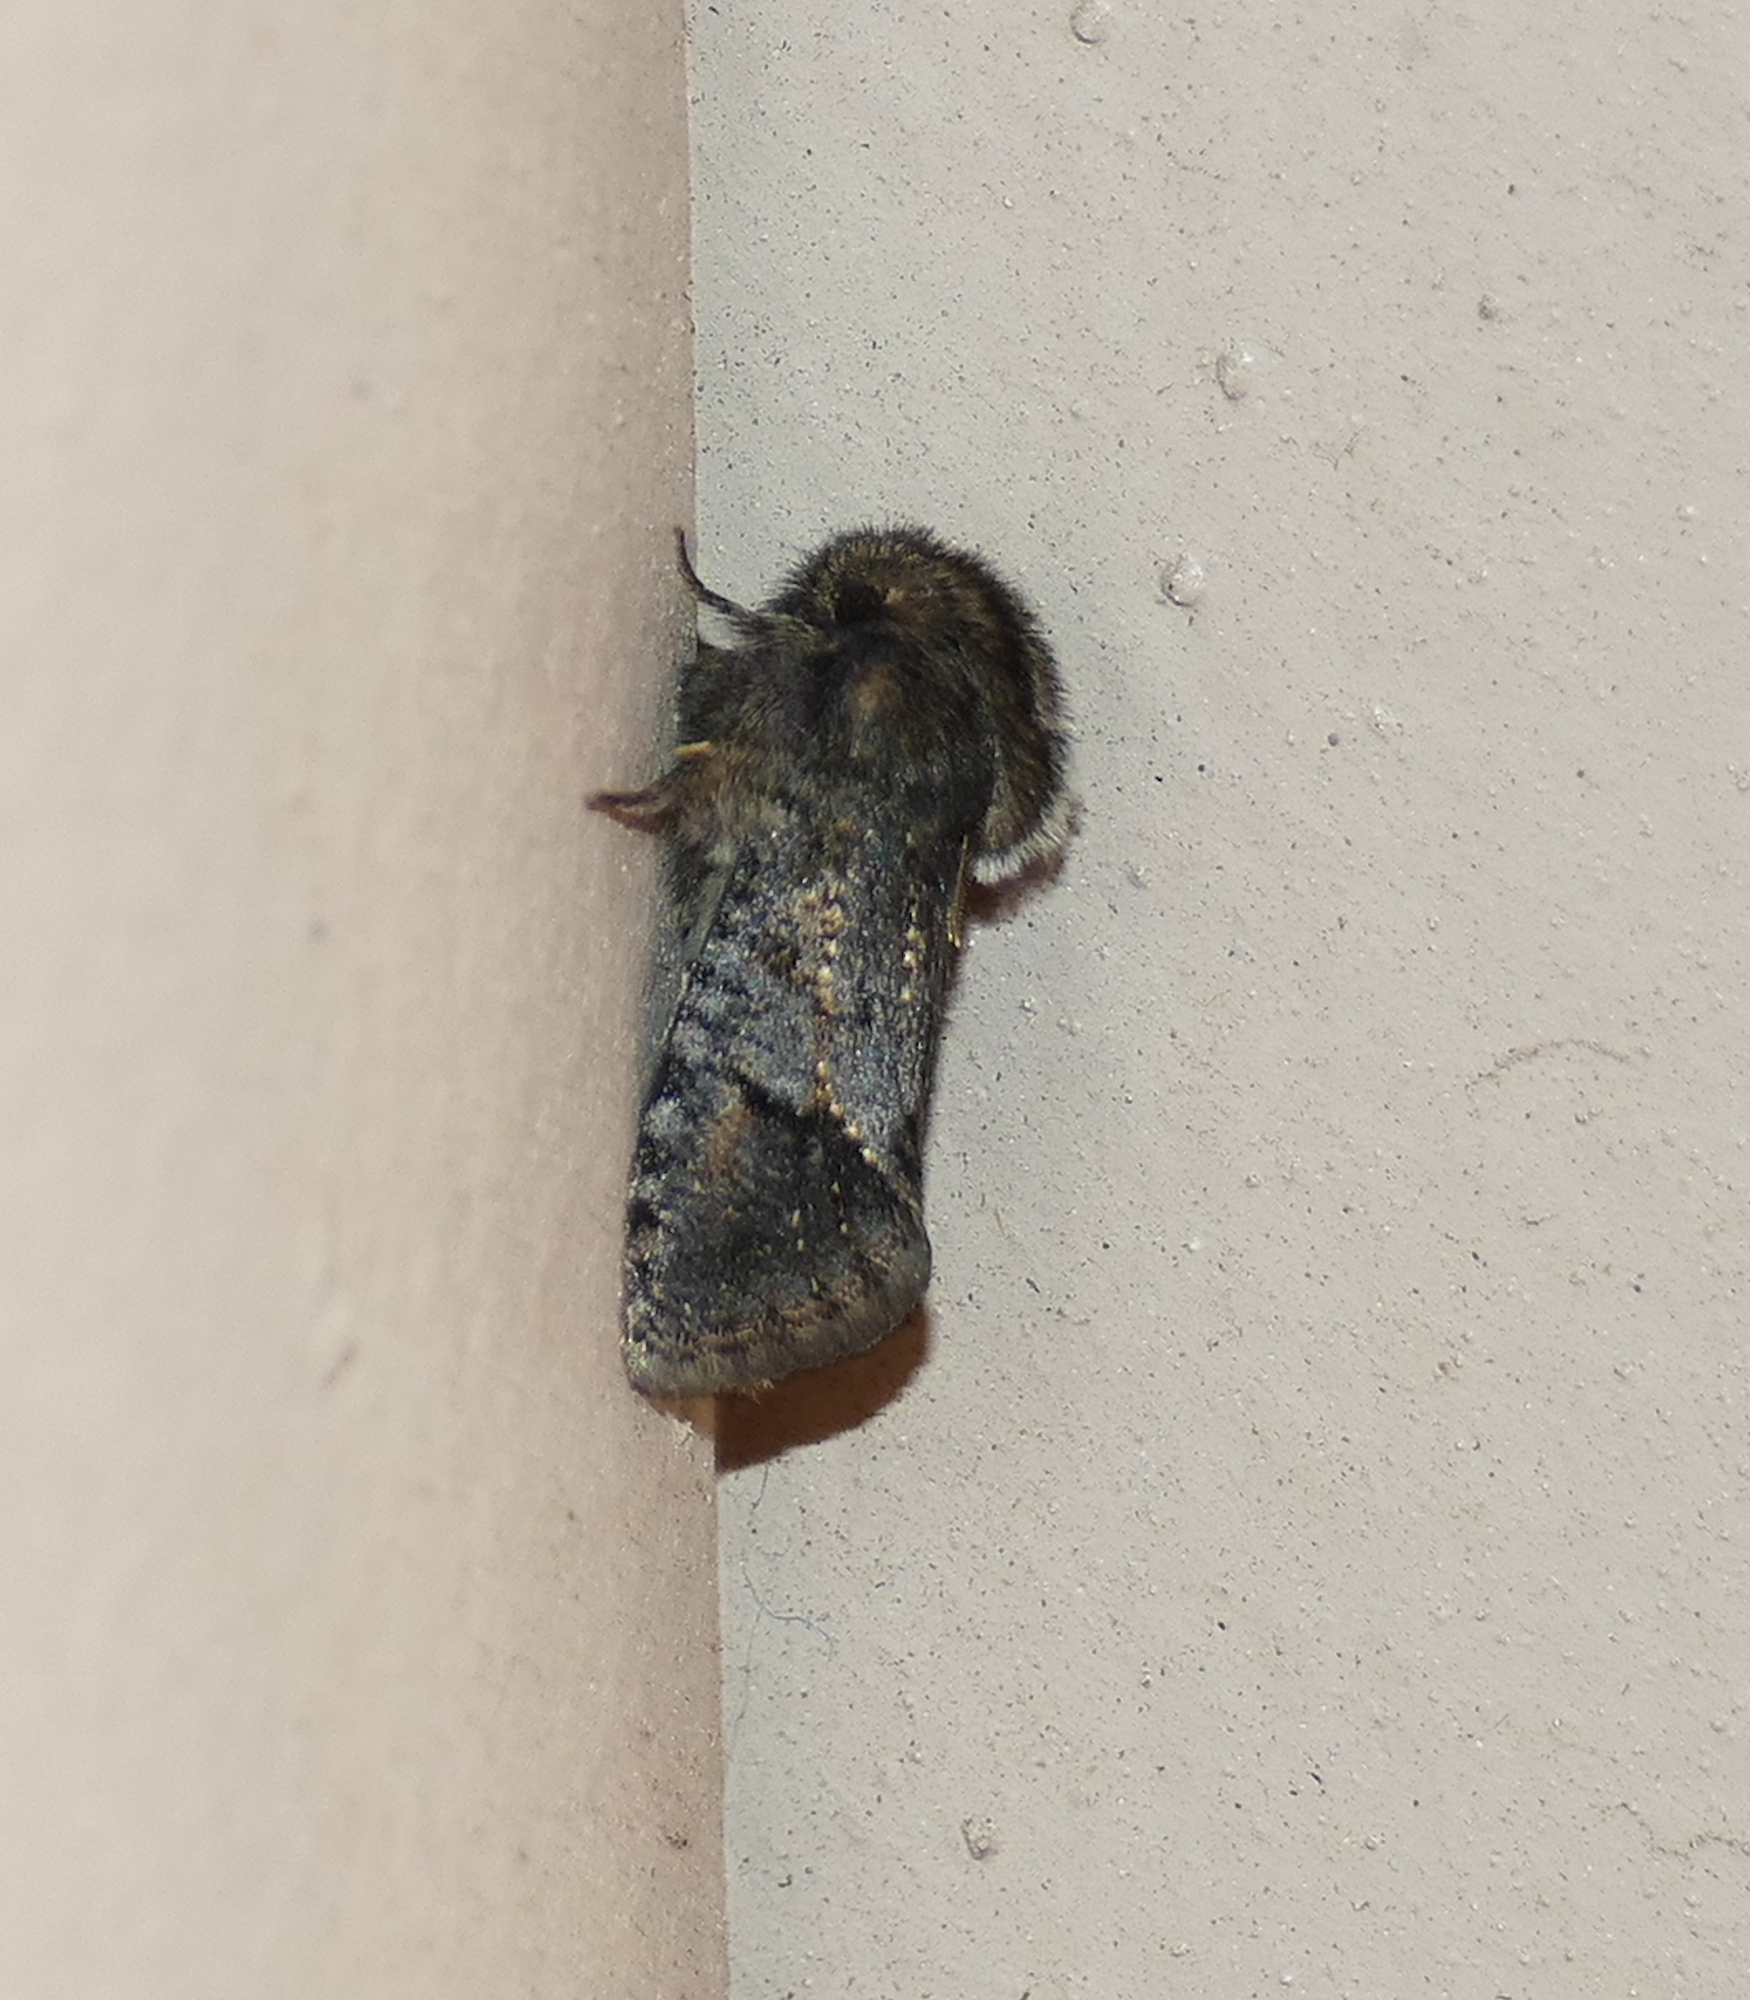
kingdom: Animalia
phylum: Arthropoda
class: Insecta
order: Lepidoptera
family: Tineidae
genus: Acrolophus
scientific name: Acrolophus filicornis
